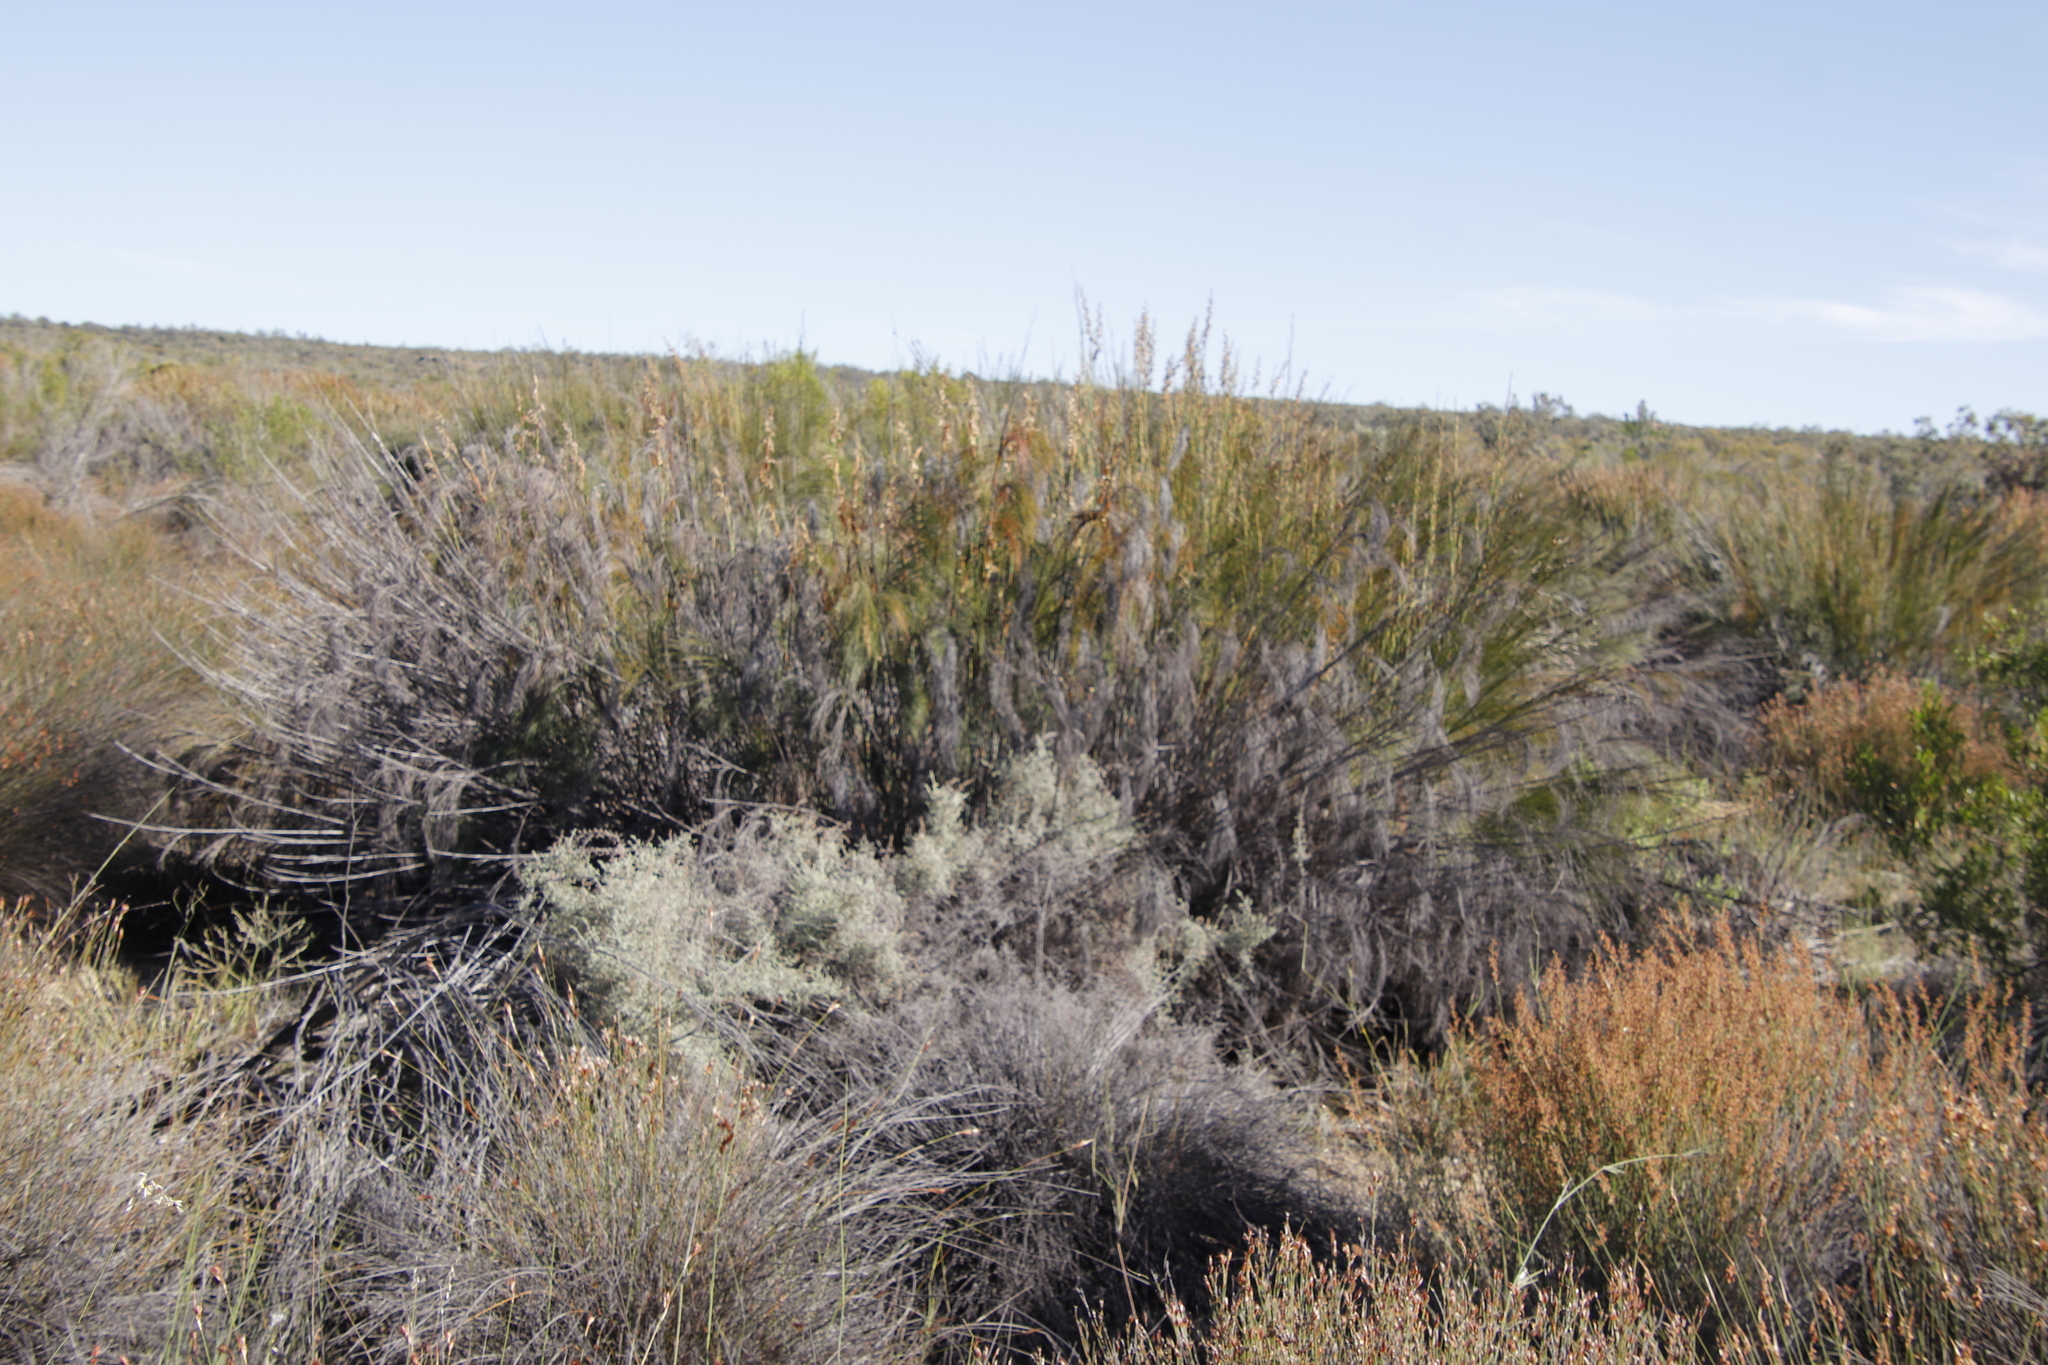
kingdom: Plantae
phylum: Tracheophyta
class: Liliopsida
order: Poales
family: Restionaceae
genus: Cannomois
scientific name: Cannomois robusta
